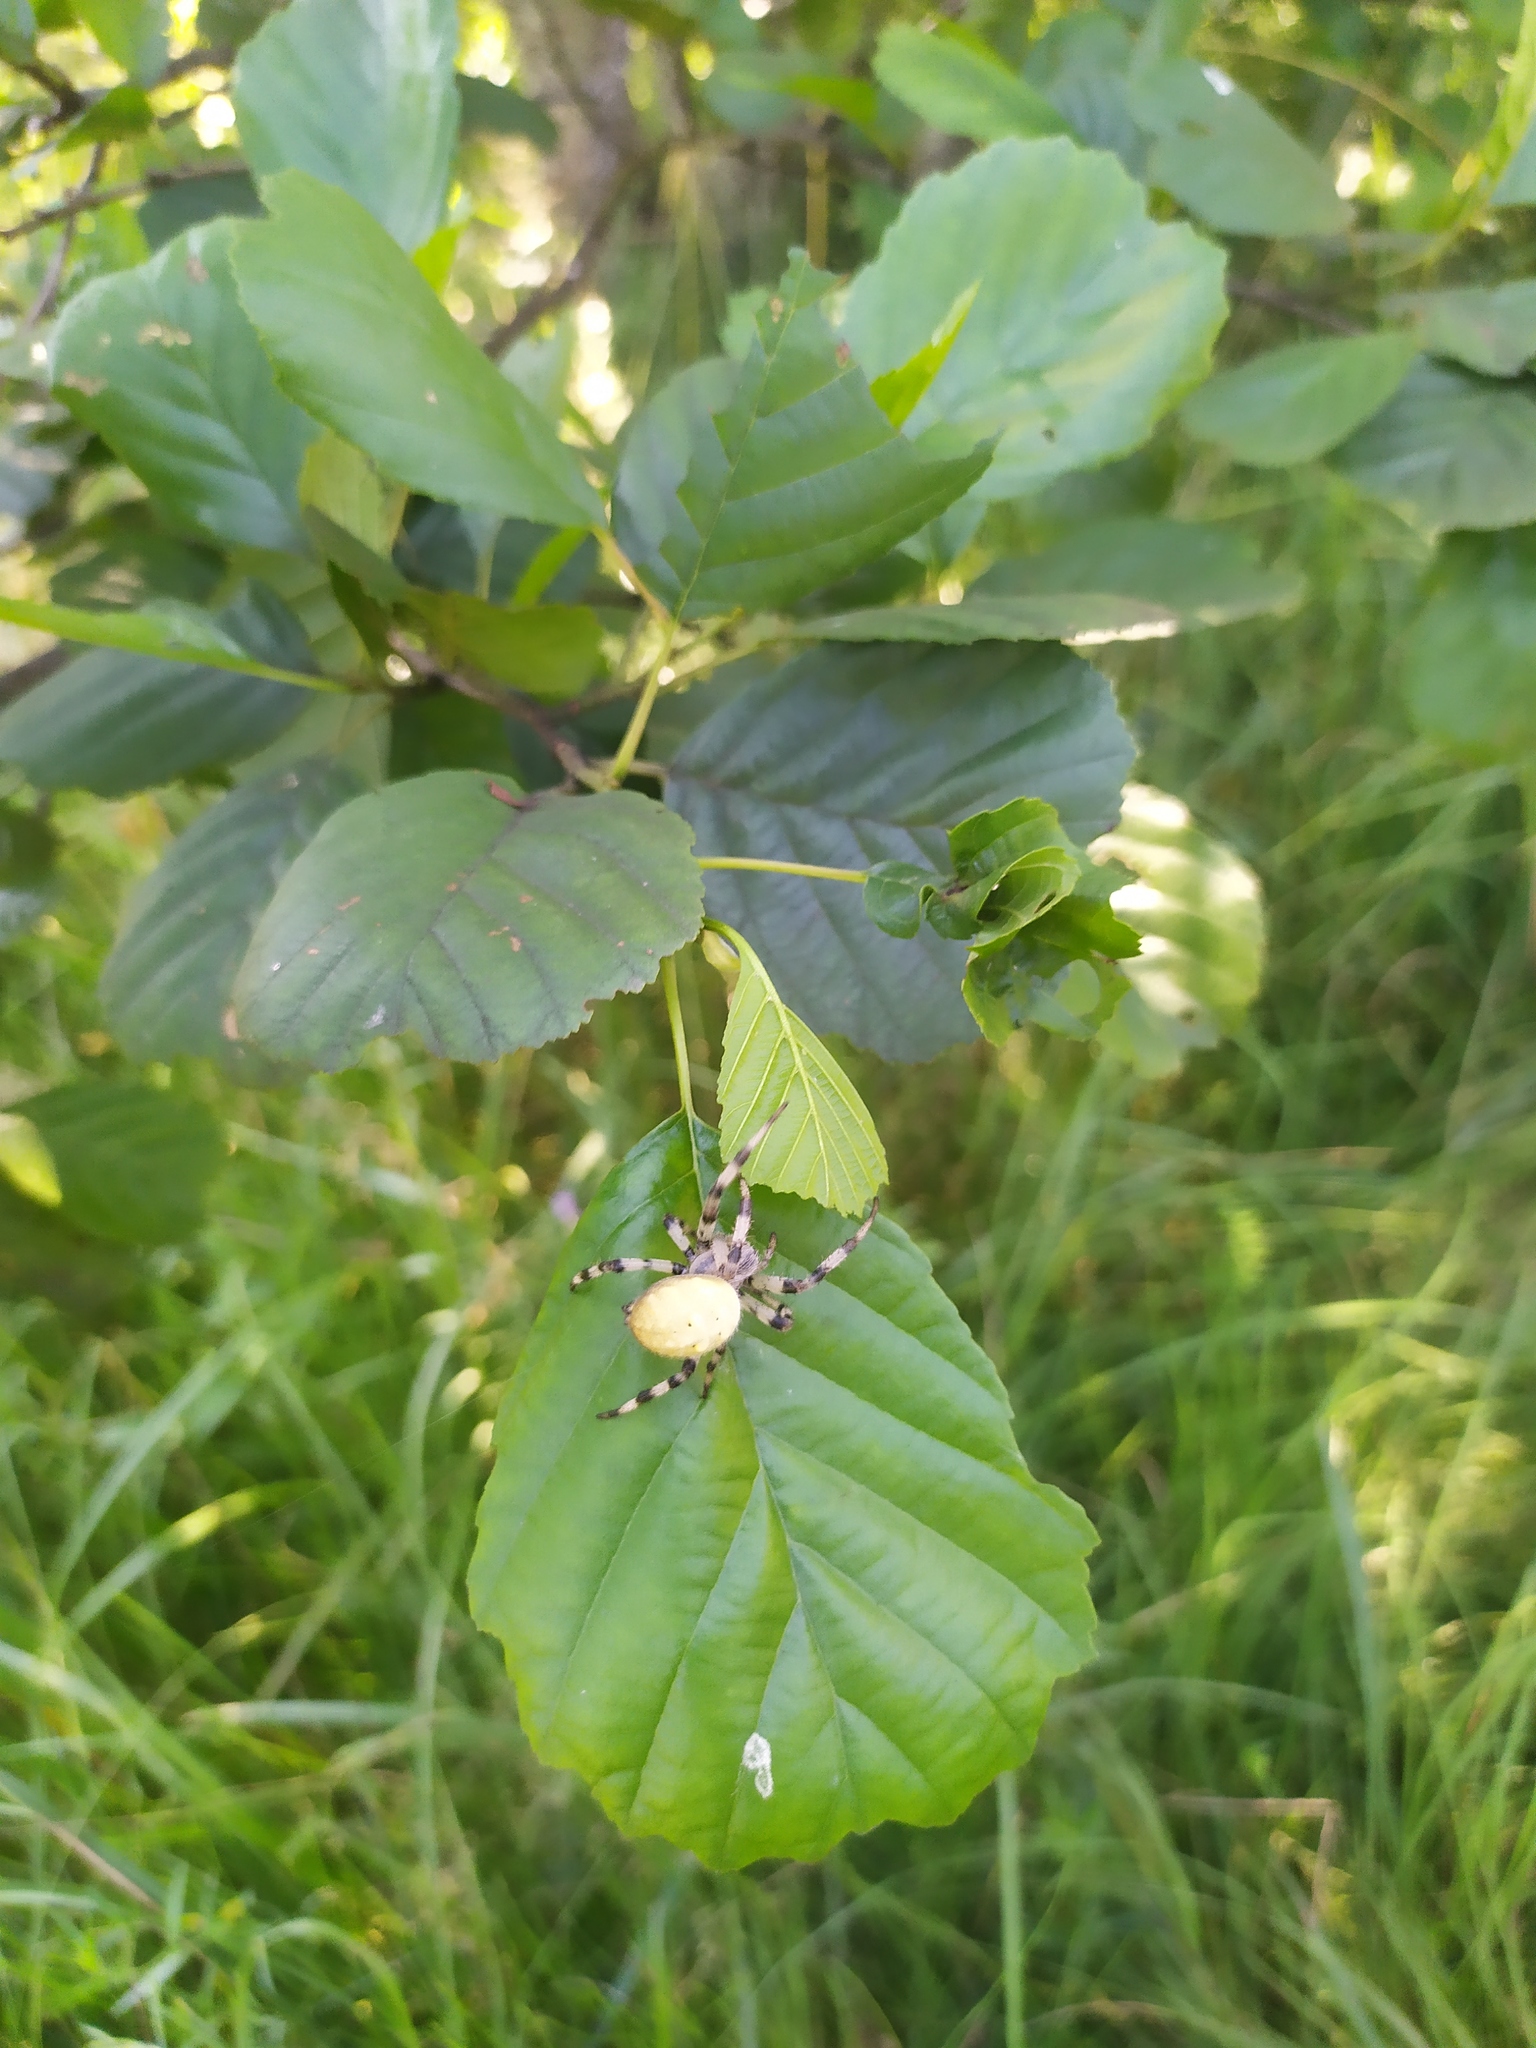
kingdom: Animalia
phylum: Arthropoda
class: Arachnida
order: Araneae
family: Araneidae
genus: Araneus
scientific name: Araneus quadratus
